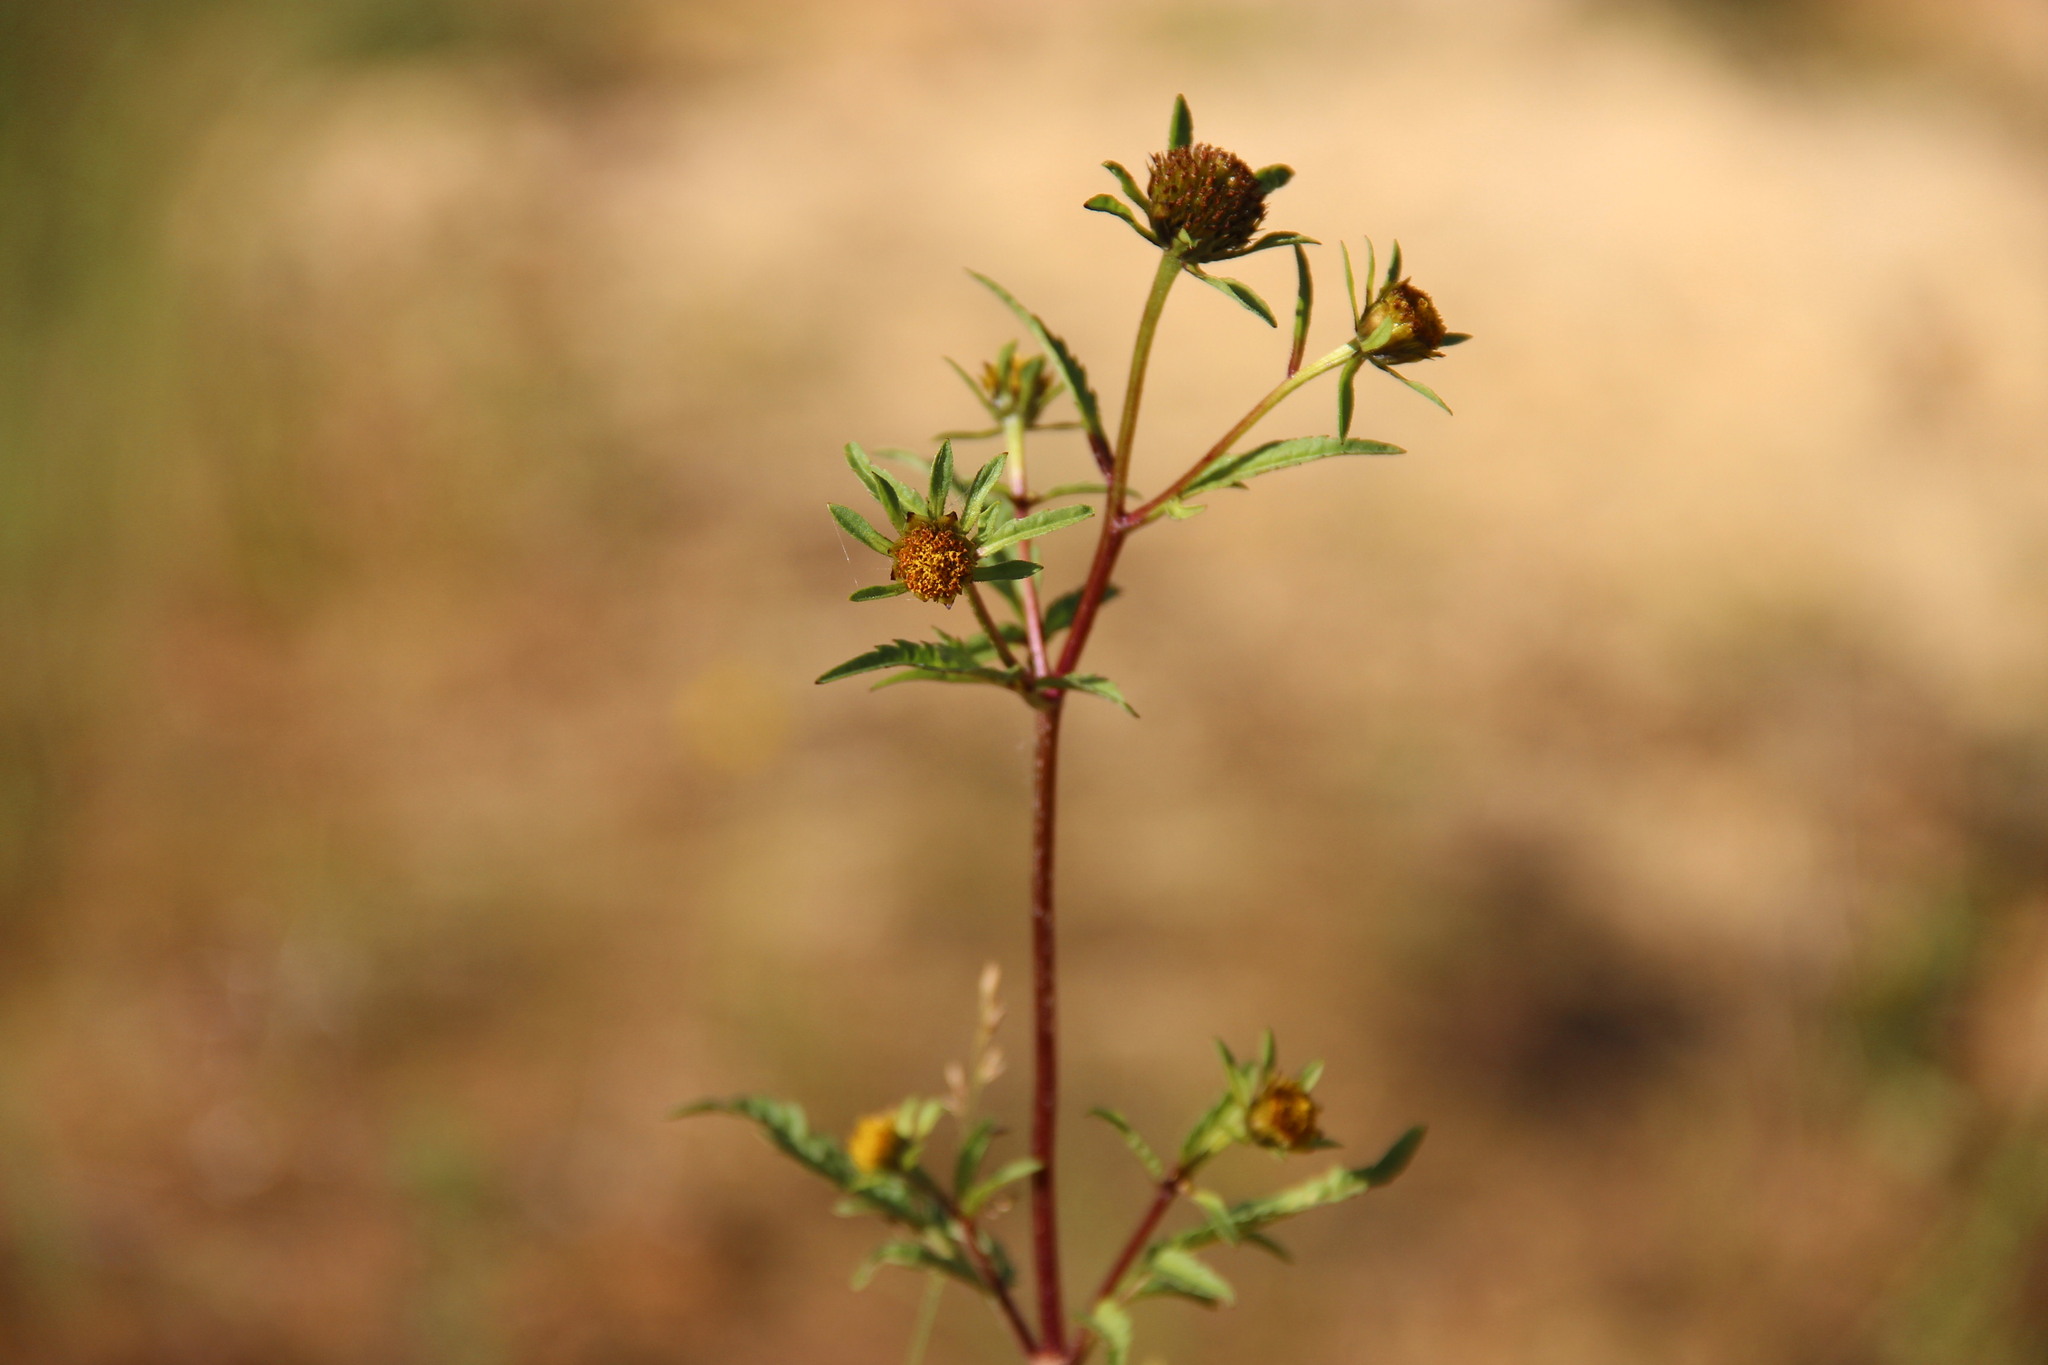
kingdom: Plantae
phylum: Tracheophyta
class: Magnoliopsida
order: Asterales
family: Asteraceae
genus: Bidens
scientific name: Bidens tripartita
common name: Trifid bur-marigold
